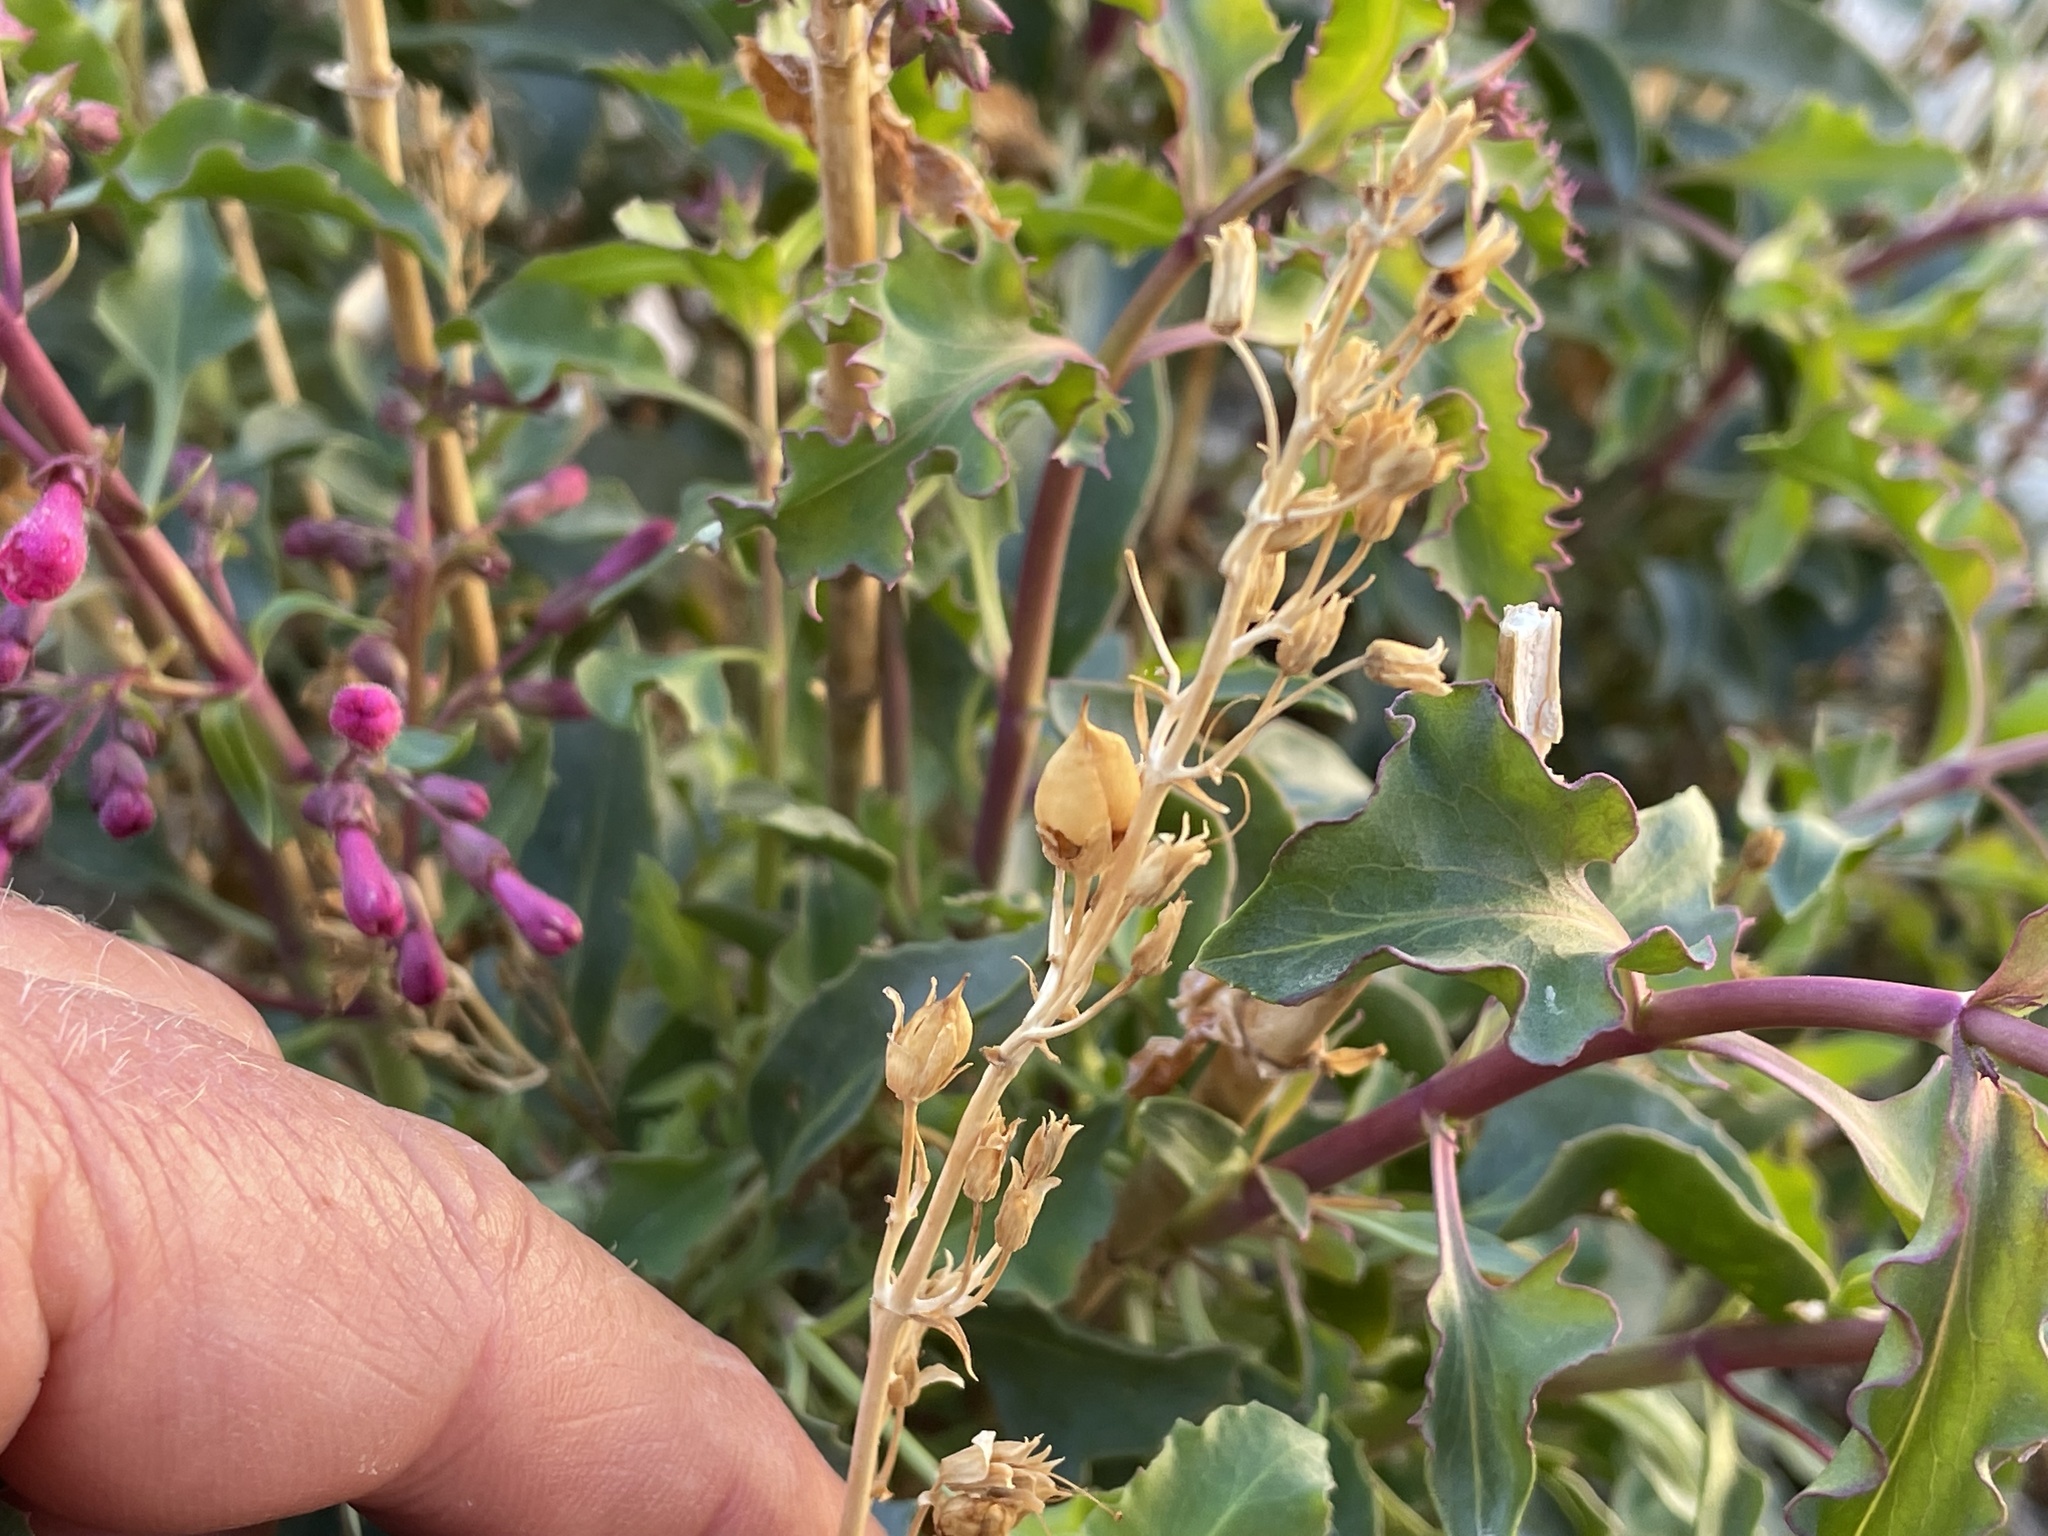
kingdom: Plantae
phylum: Tracheophyta
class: Magnoliopsida
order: Lamiales
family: Plantaginaceae
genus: Penstemon
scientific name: Penstemon clevelandii
